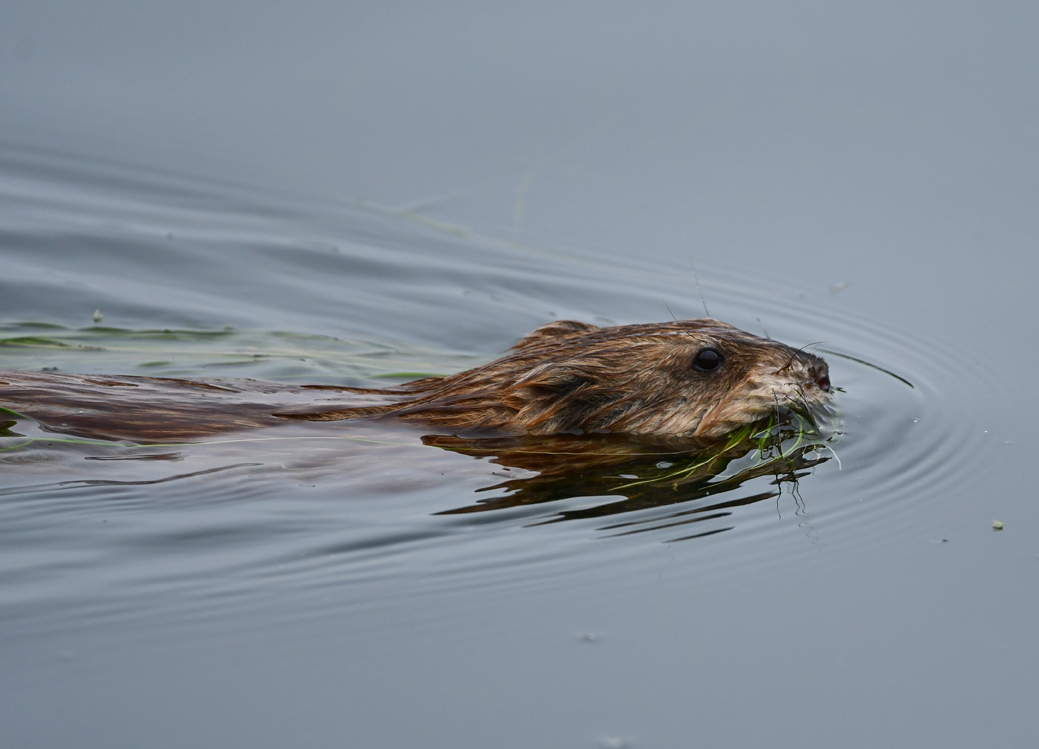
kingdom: Animalia
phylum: Chordata
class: Mammalia
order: Rodentia
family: Cricetidae
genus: Ondatra
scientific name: Ondatra zibethicus
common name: Muskrat
